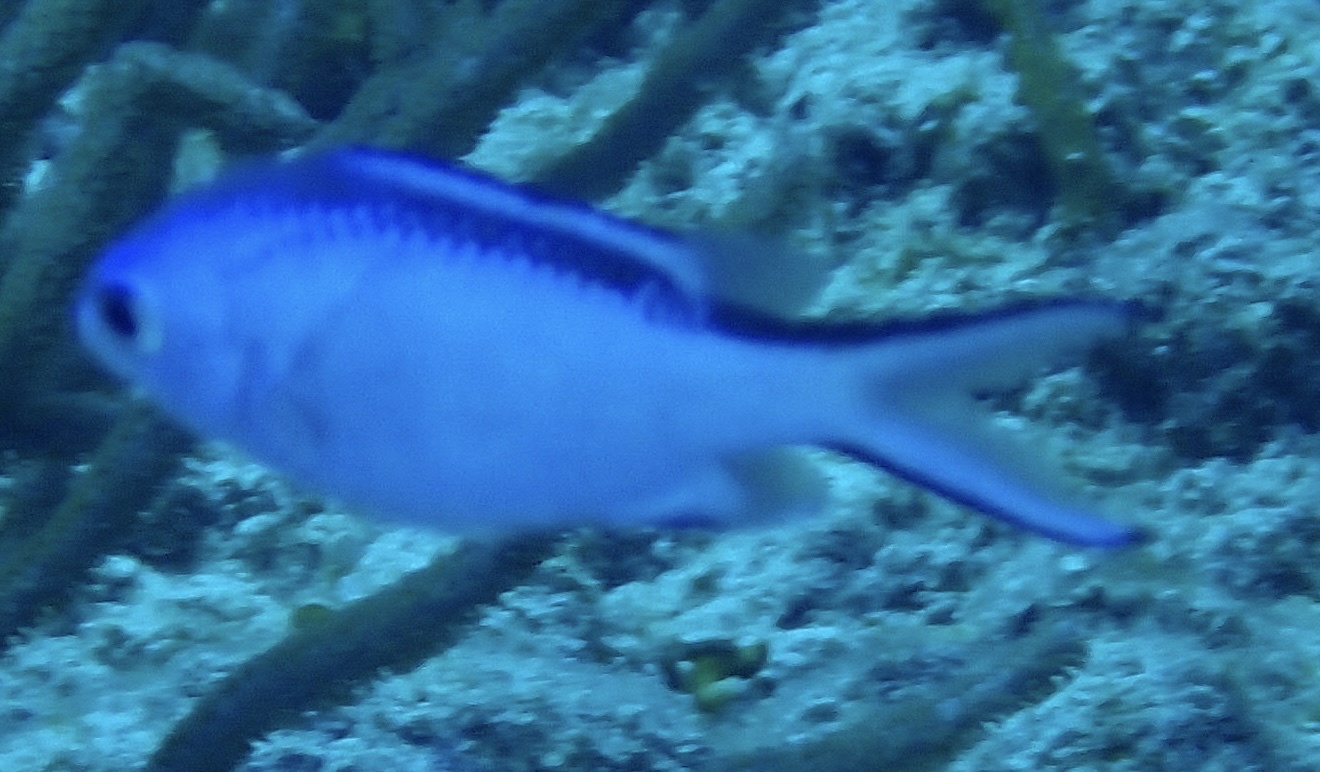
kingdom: Animalia
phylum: Chordata
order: Perciformes
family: Pomacentridae
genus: Chromis
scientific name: Chromis cyanea
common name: Blue chromis
